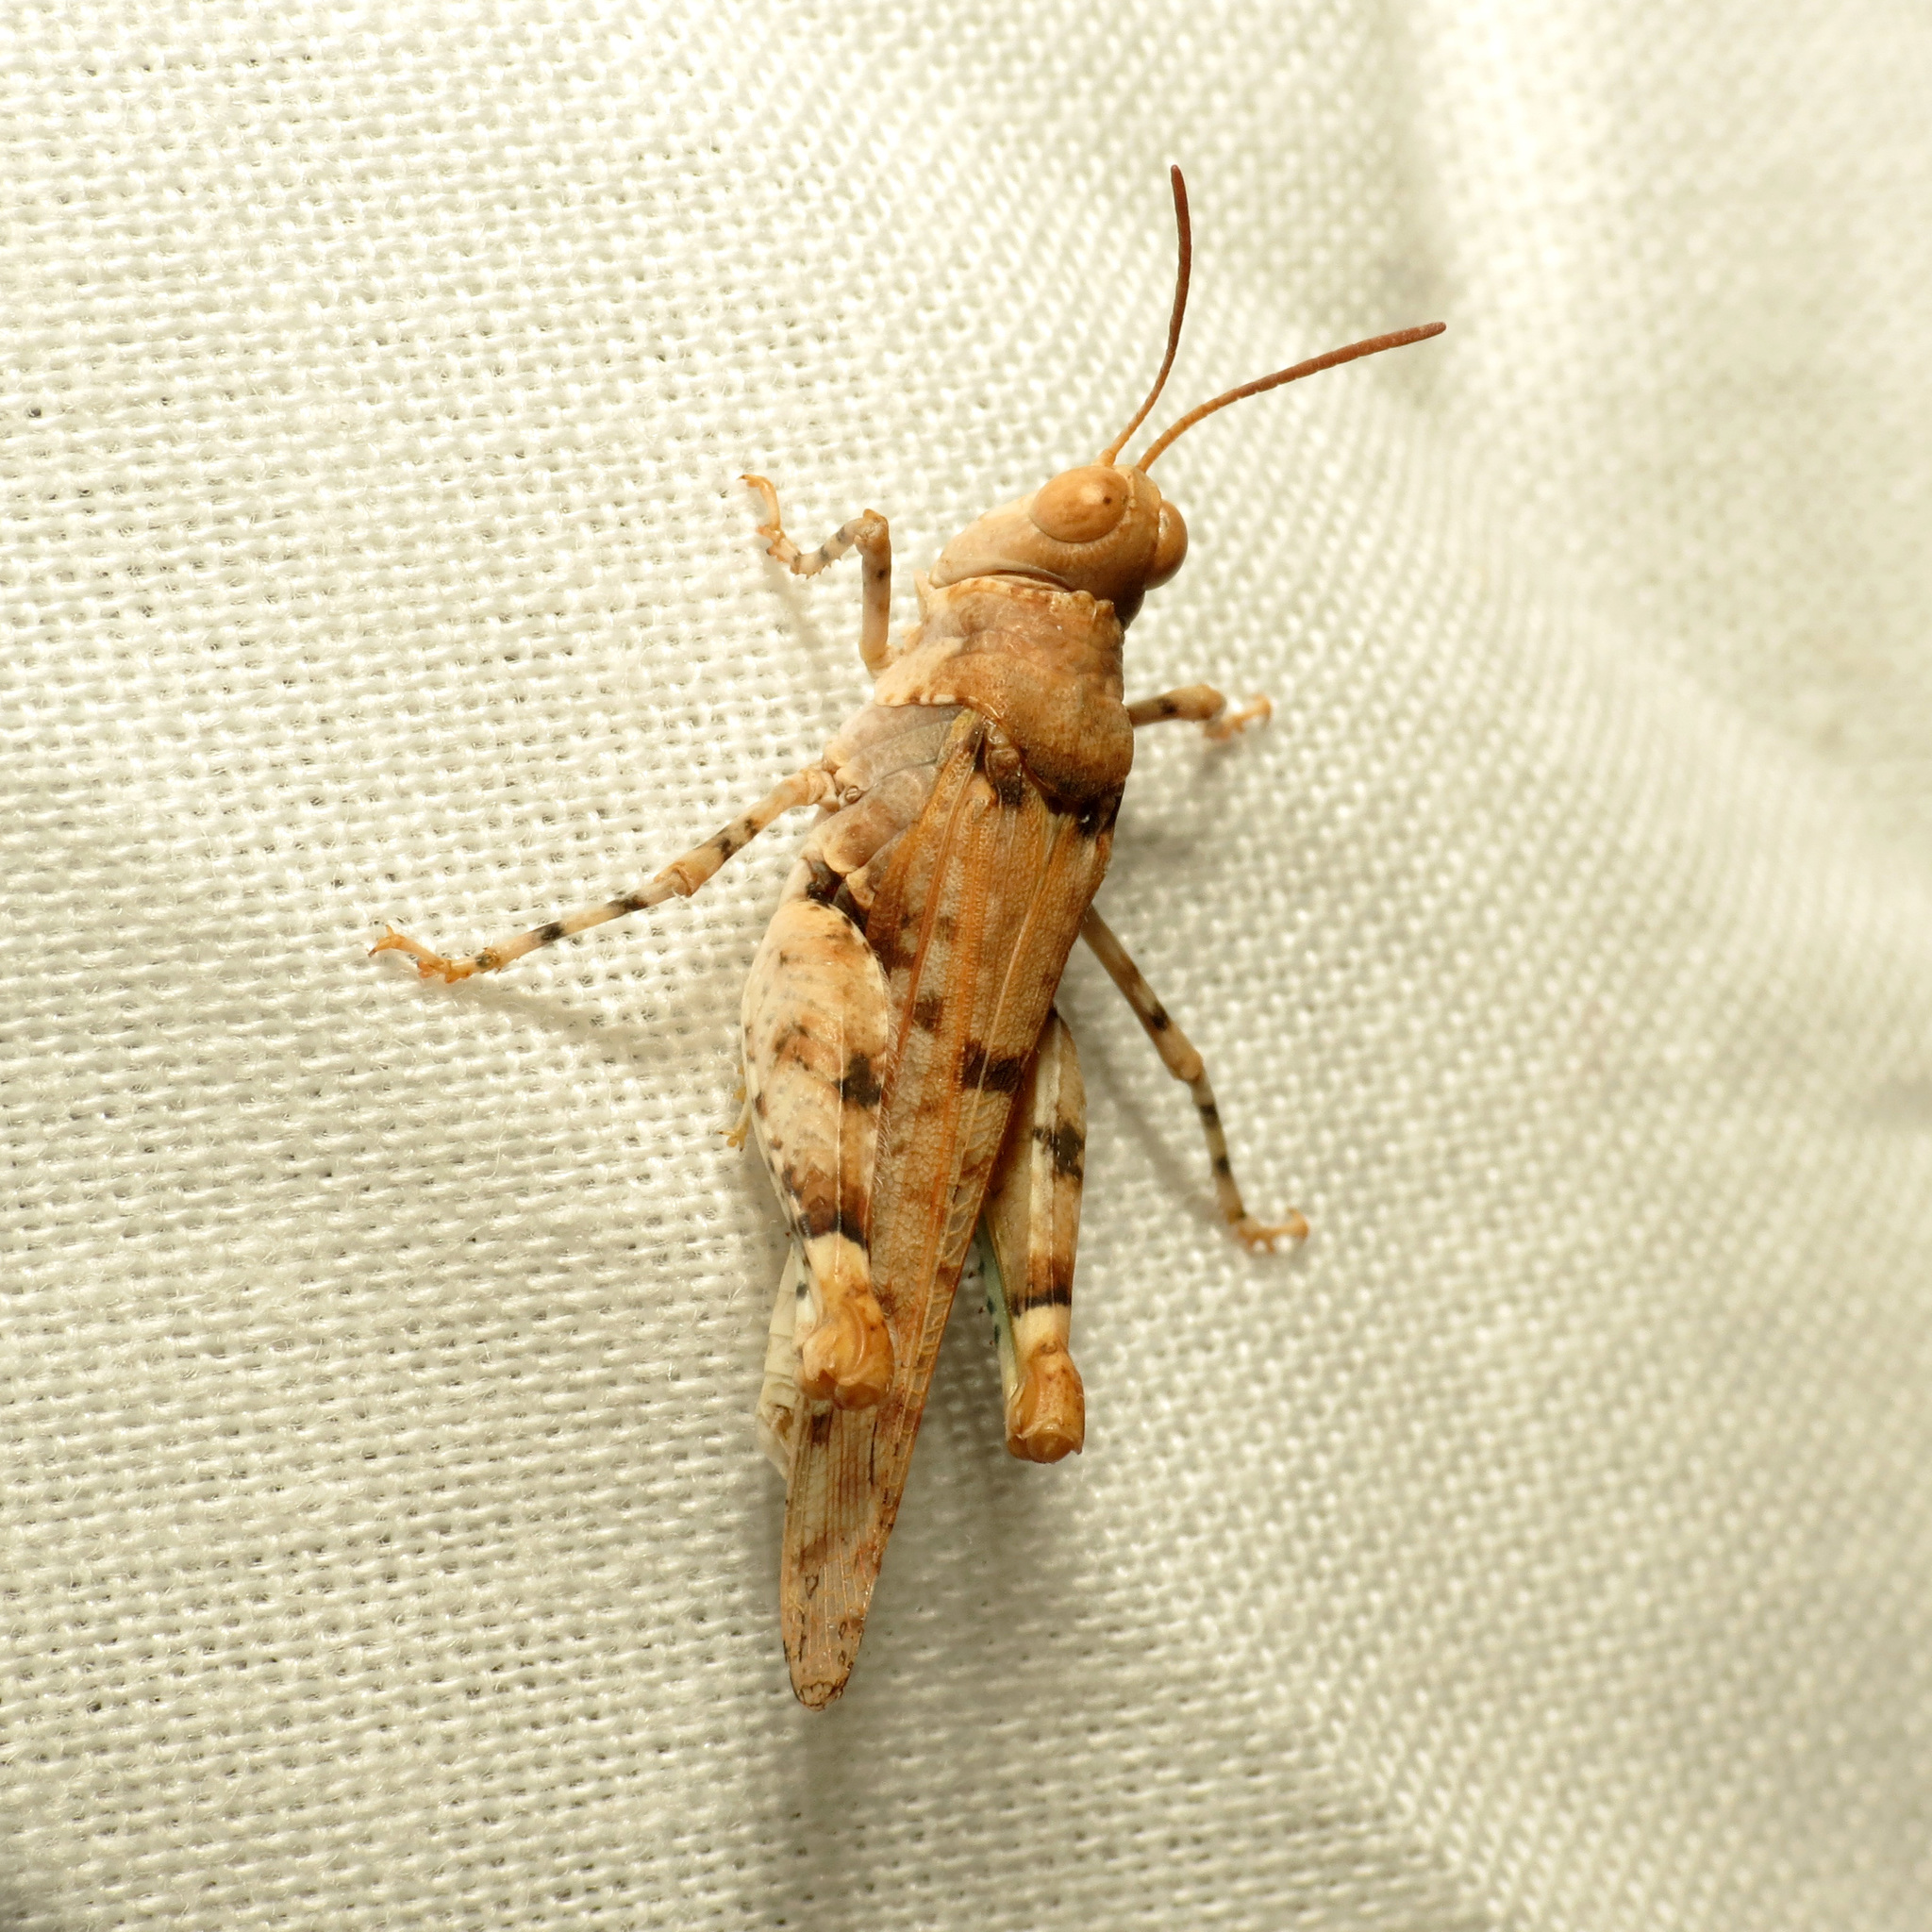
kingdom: Animalia
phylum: Arthropoda
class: Insecta
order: Orthoptera
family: Acrididae
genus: Cibolacris
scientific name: Cibolacris parviceps
